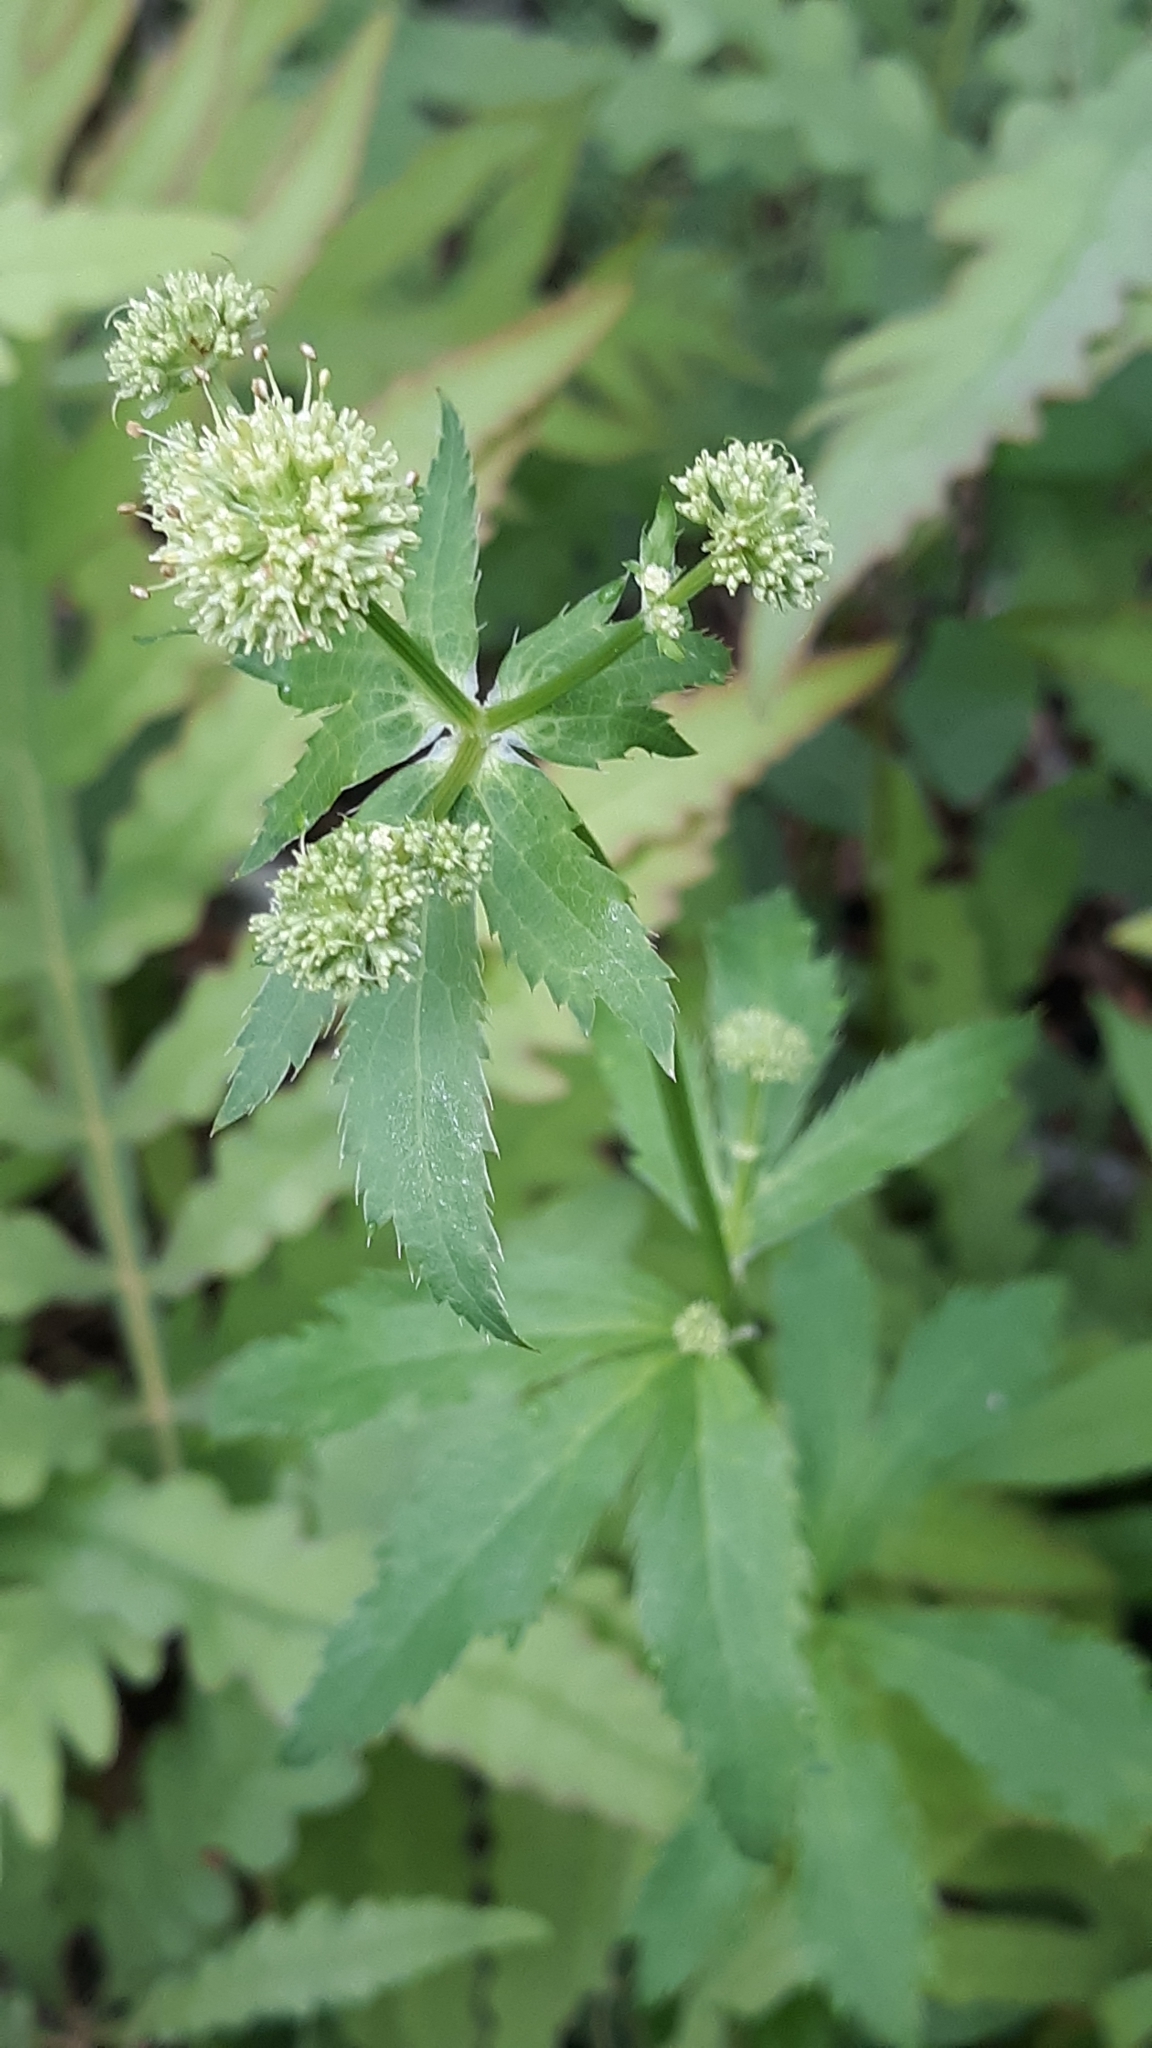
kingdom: Plantae
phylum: Tracheophyta
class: Magnoliopsida
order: Apiales
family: Apiaceae
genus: Sanicula
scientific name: Sanicula marilandica
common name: Black snakeroot
